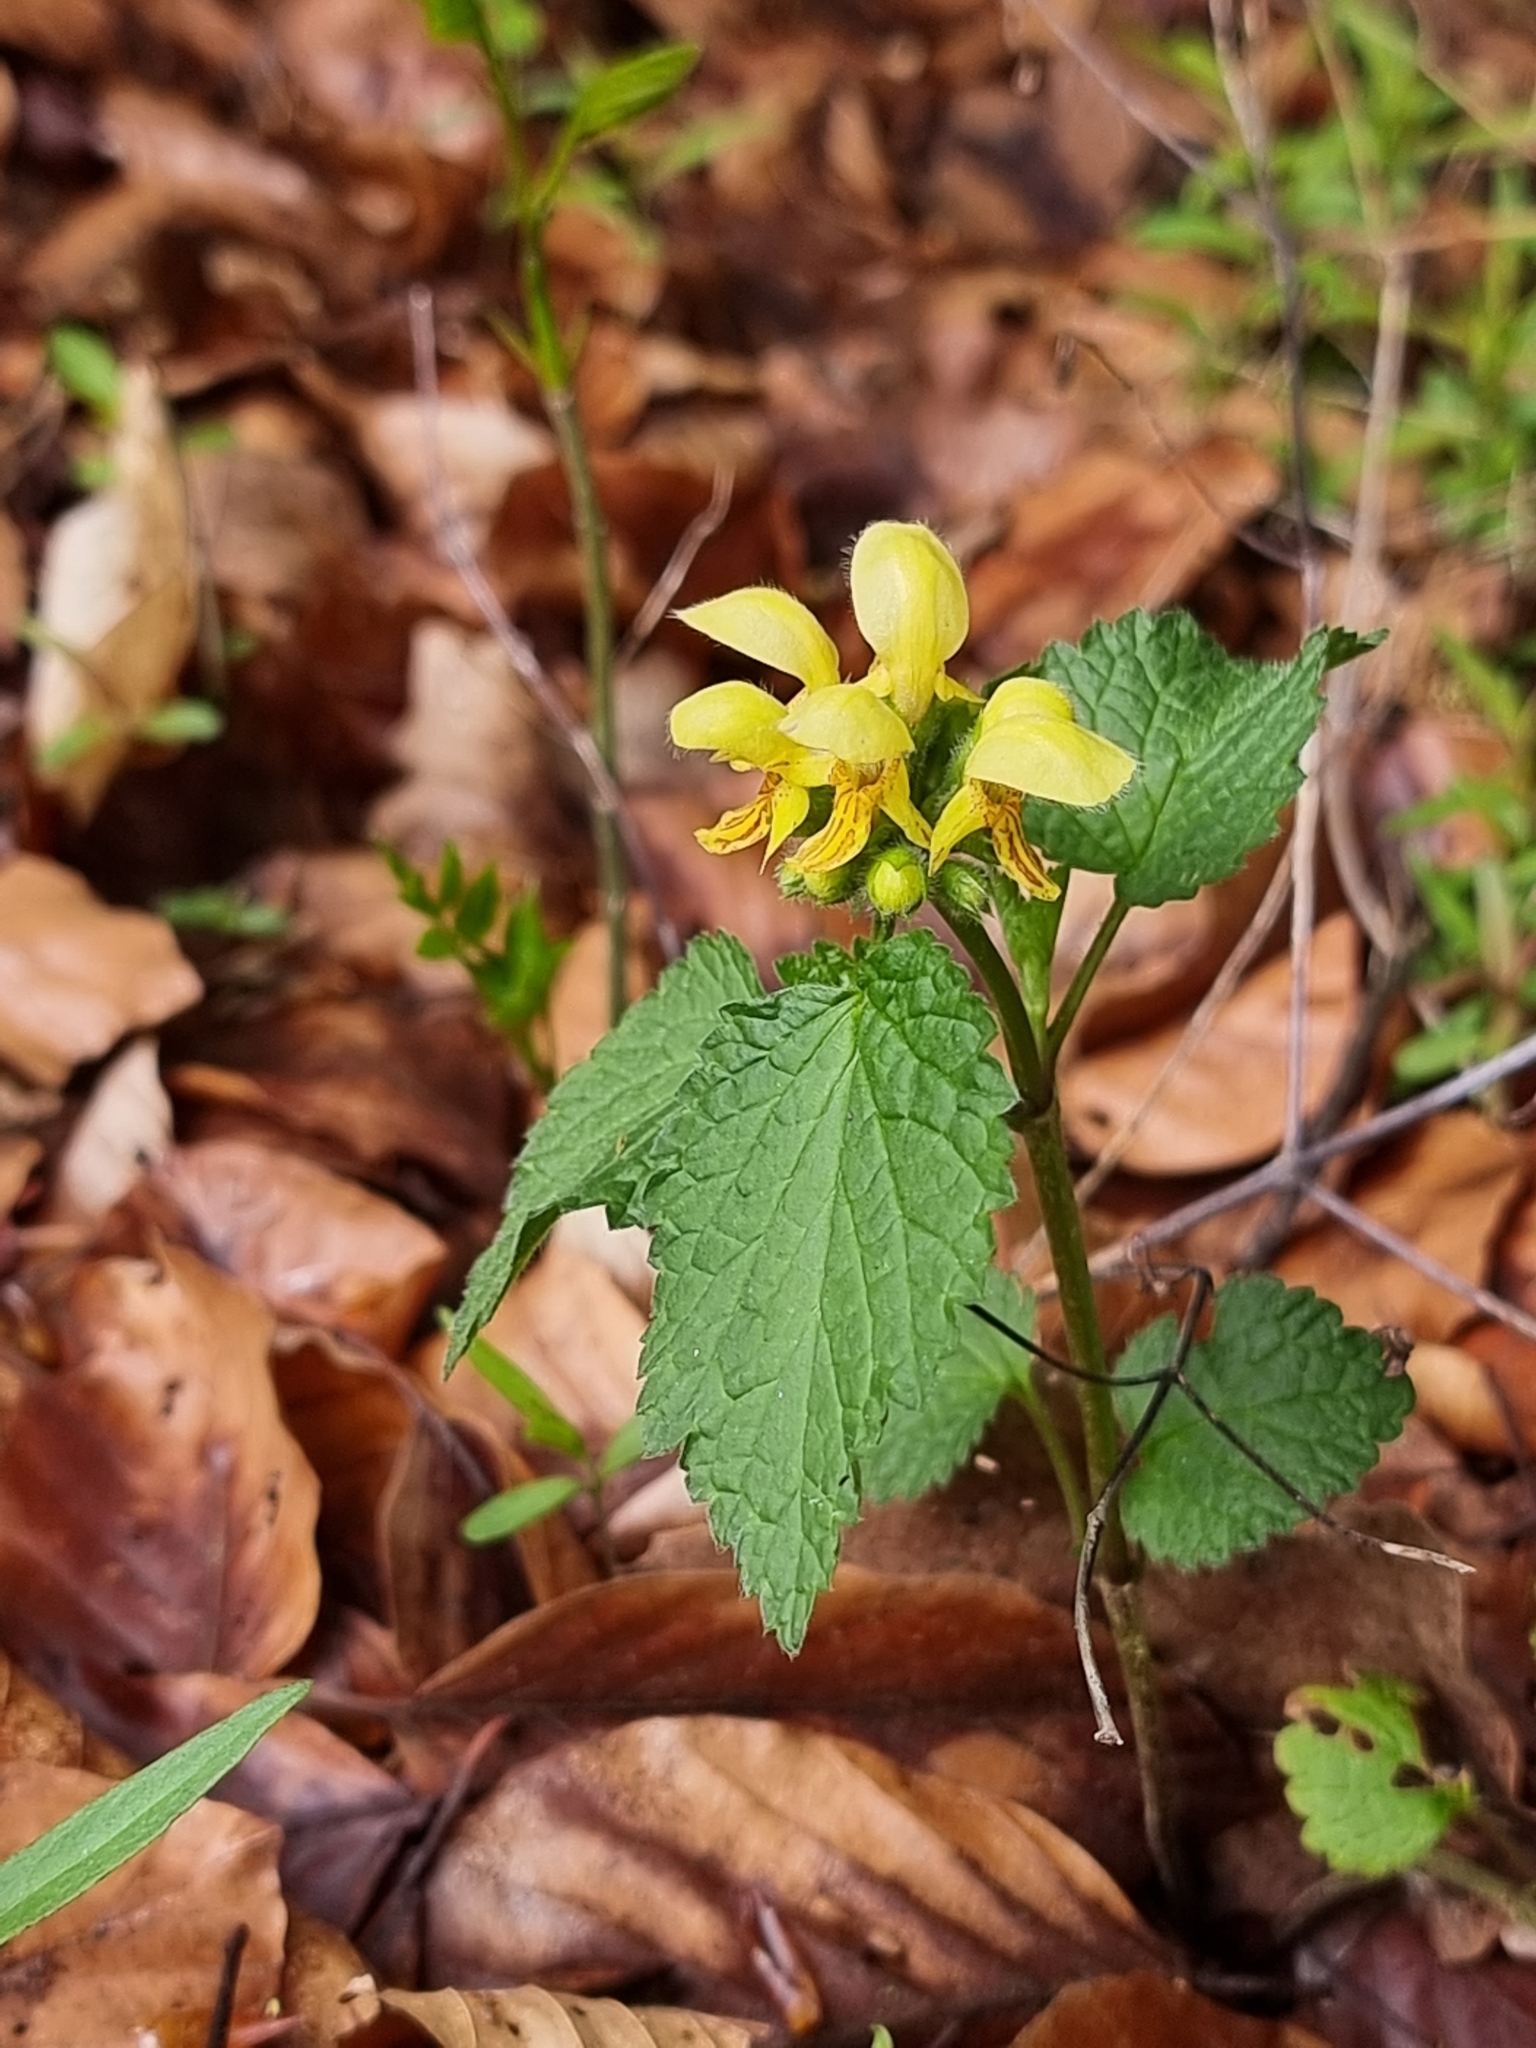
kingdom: Plantae
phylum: Tracheophyta
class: Magnoliopsida
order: Lamiales
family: Lamiaceae
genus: Lamium
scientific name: Lamium galeobdolon
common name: Yellow archangel
